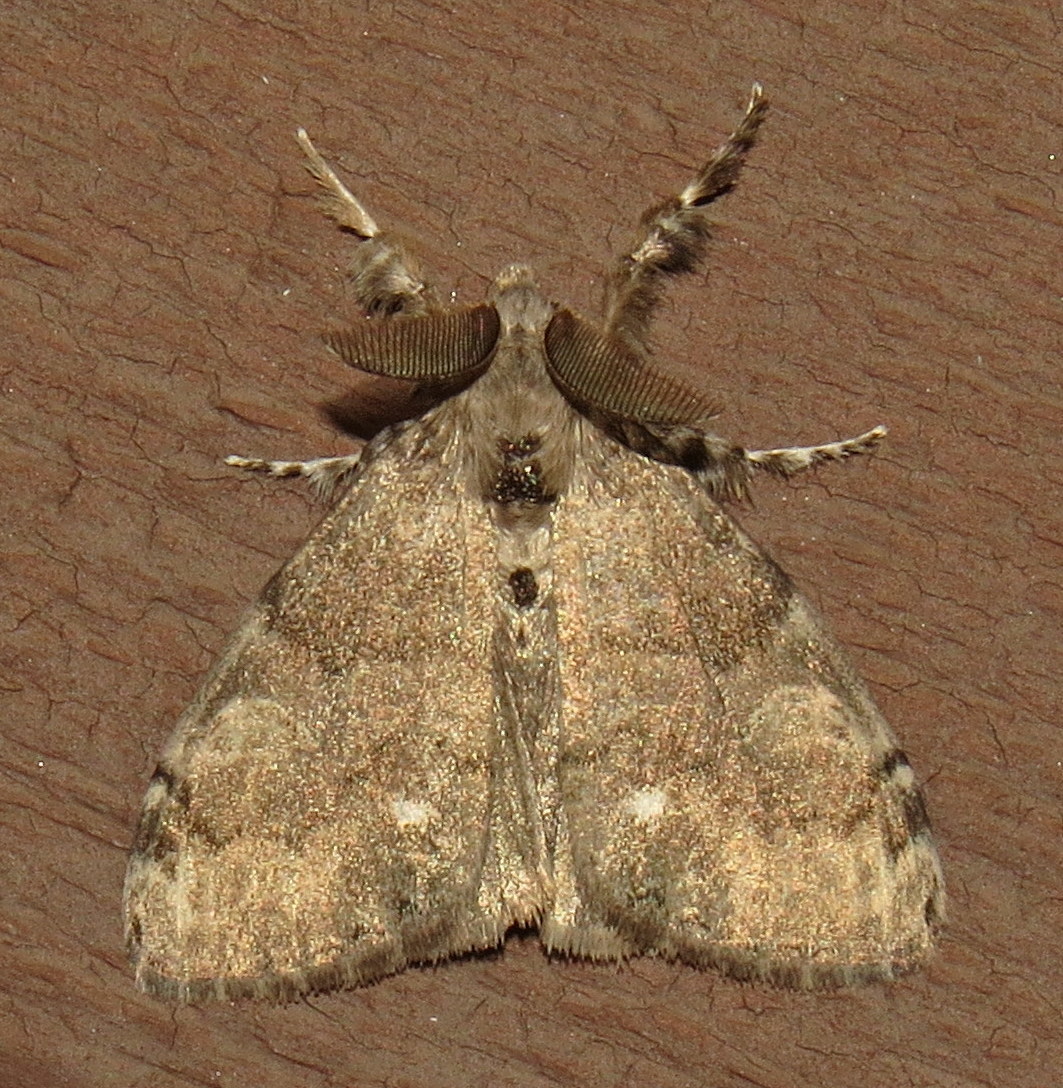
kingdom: Animalia
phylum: Arthropoda
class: Insecta
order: Lepidoptera
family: Erebidae
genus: Orgyia
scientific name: Orgyia leucostigma
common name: White-marked tussock moth
